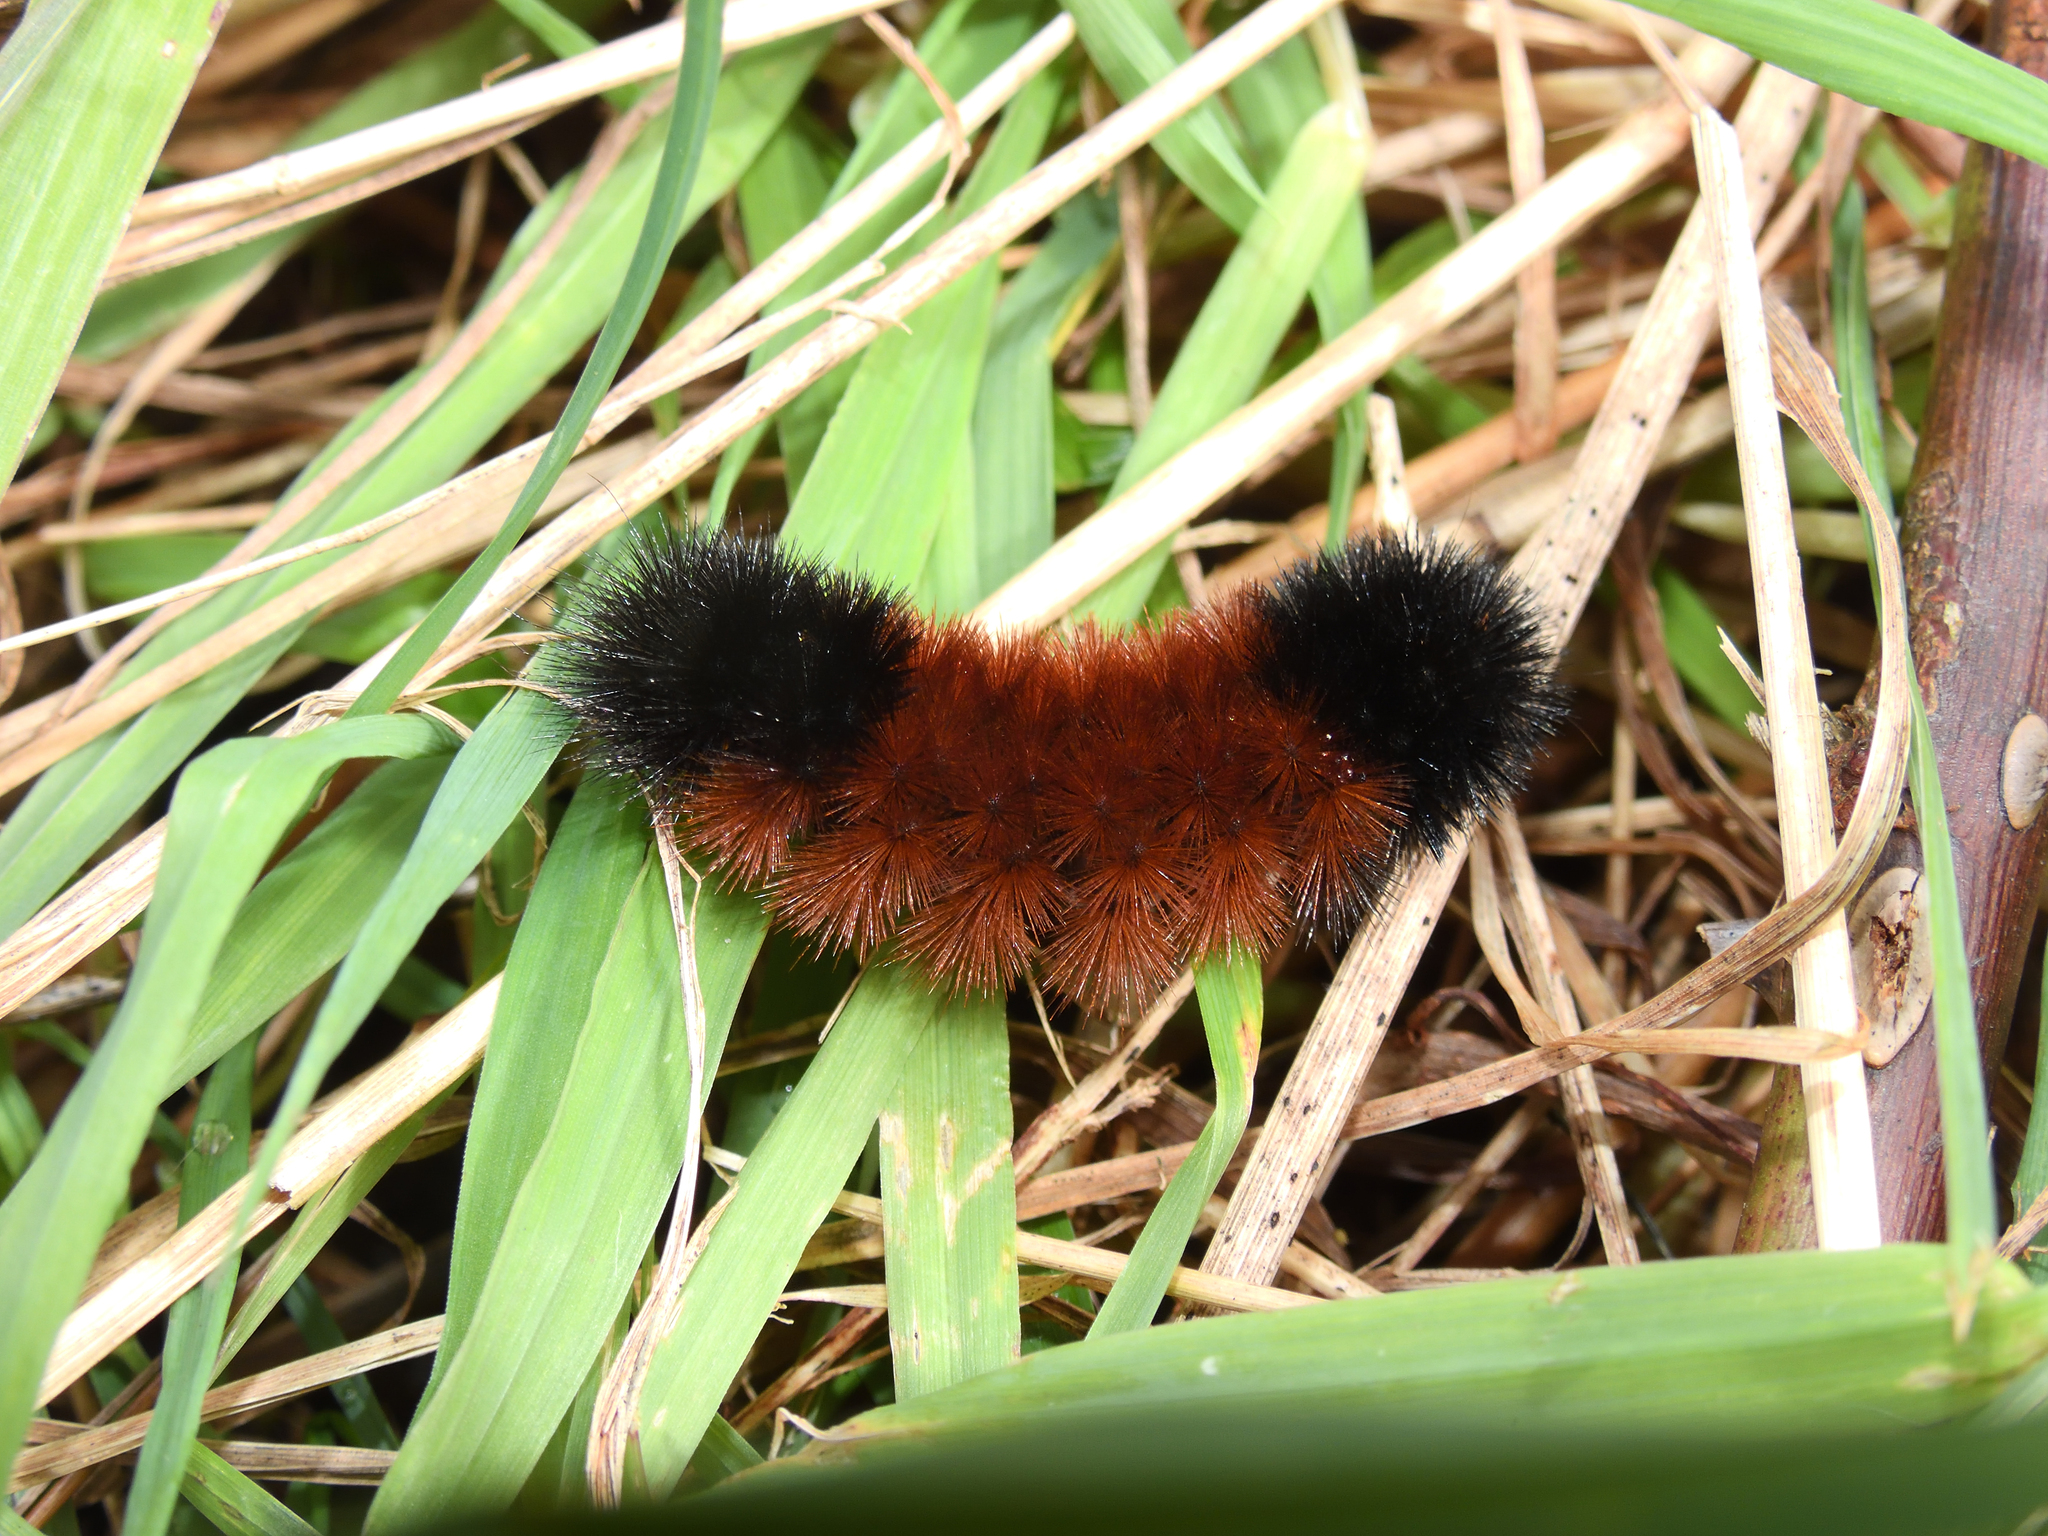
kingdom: Animalia
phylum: Arthropoda
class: Insecta
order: Lepidoptera
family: Erebidae
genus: Pyrrharctia
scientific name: Pyrrharctia isabella
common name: Isabella tiger moth
